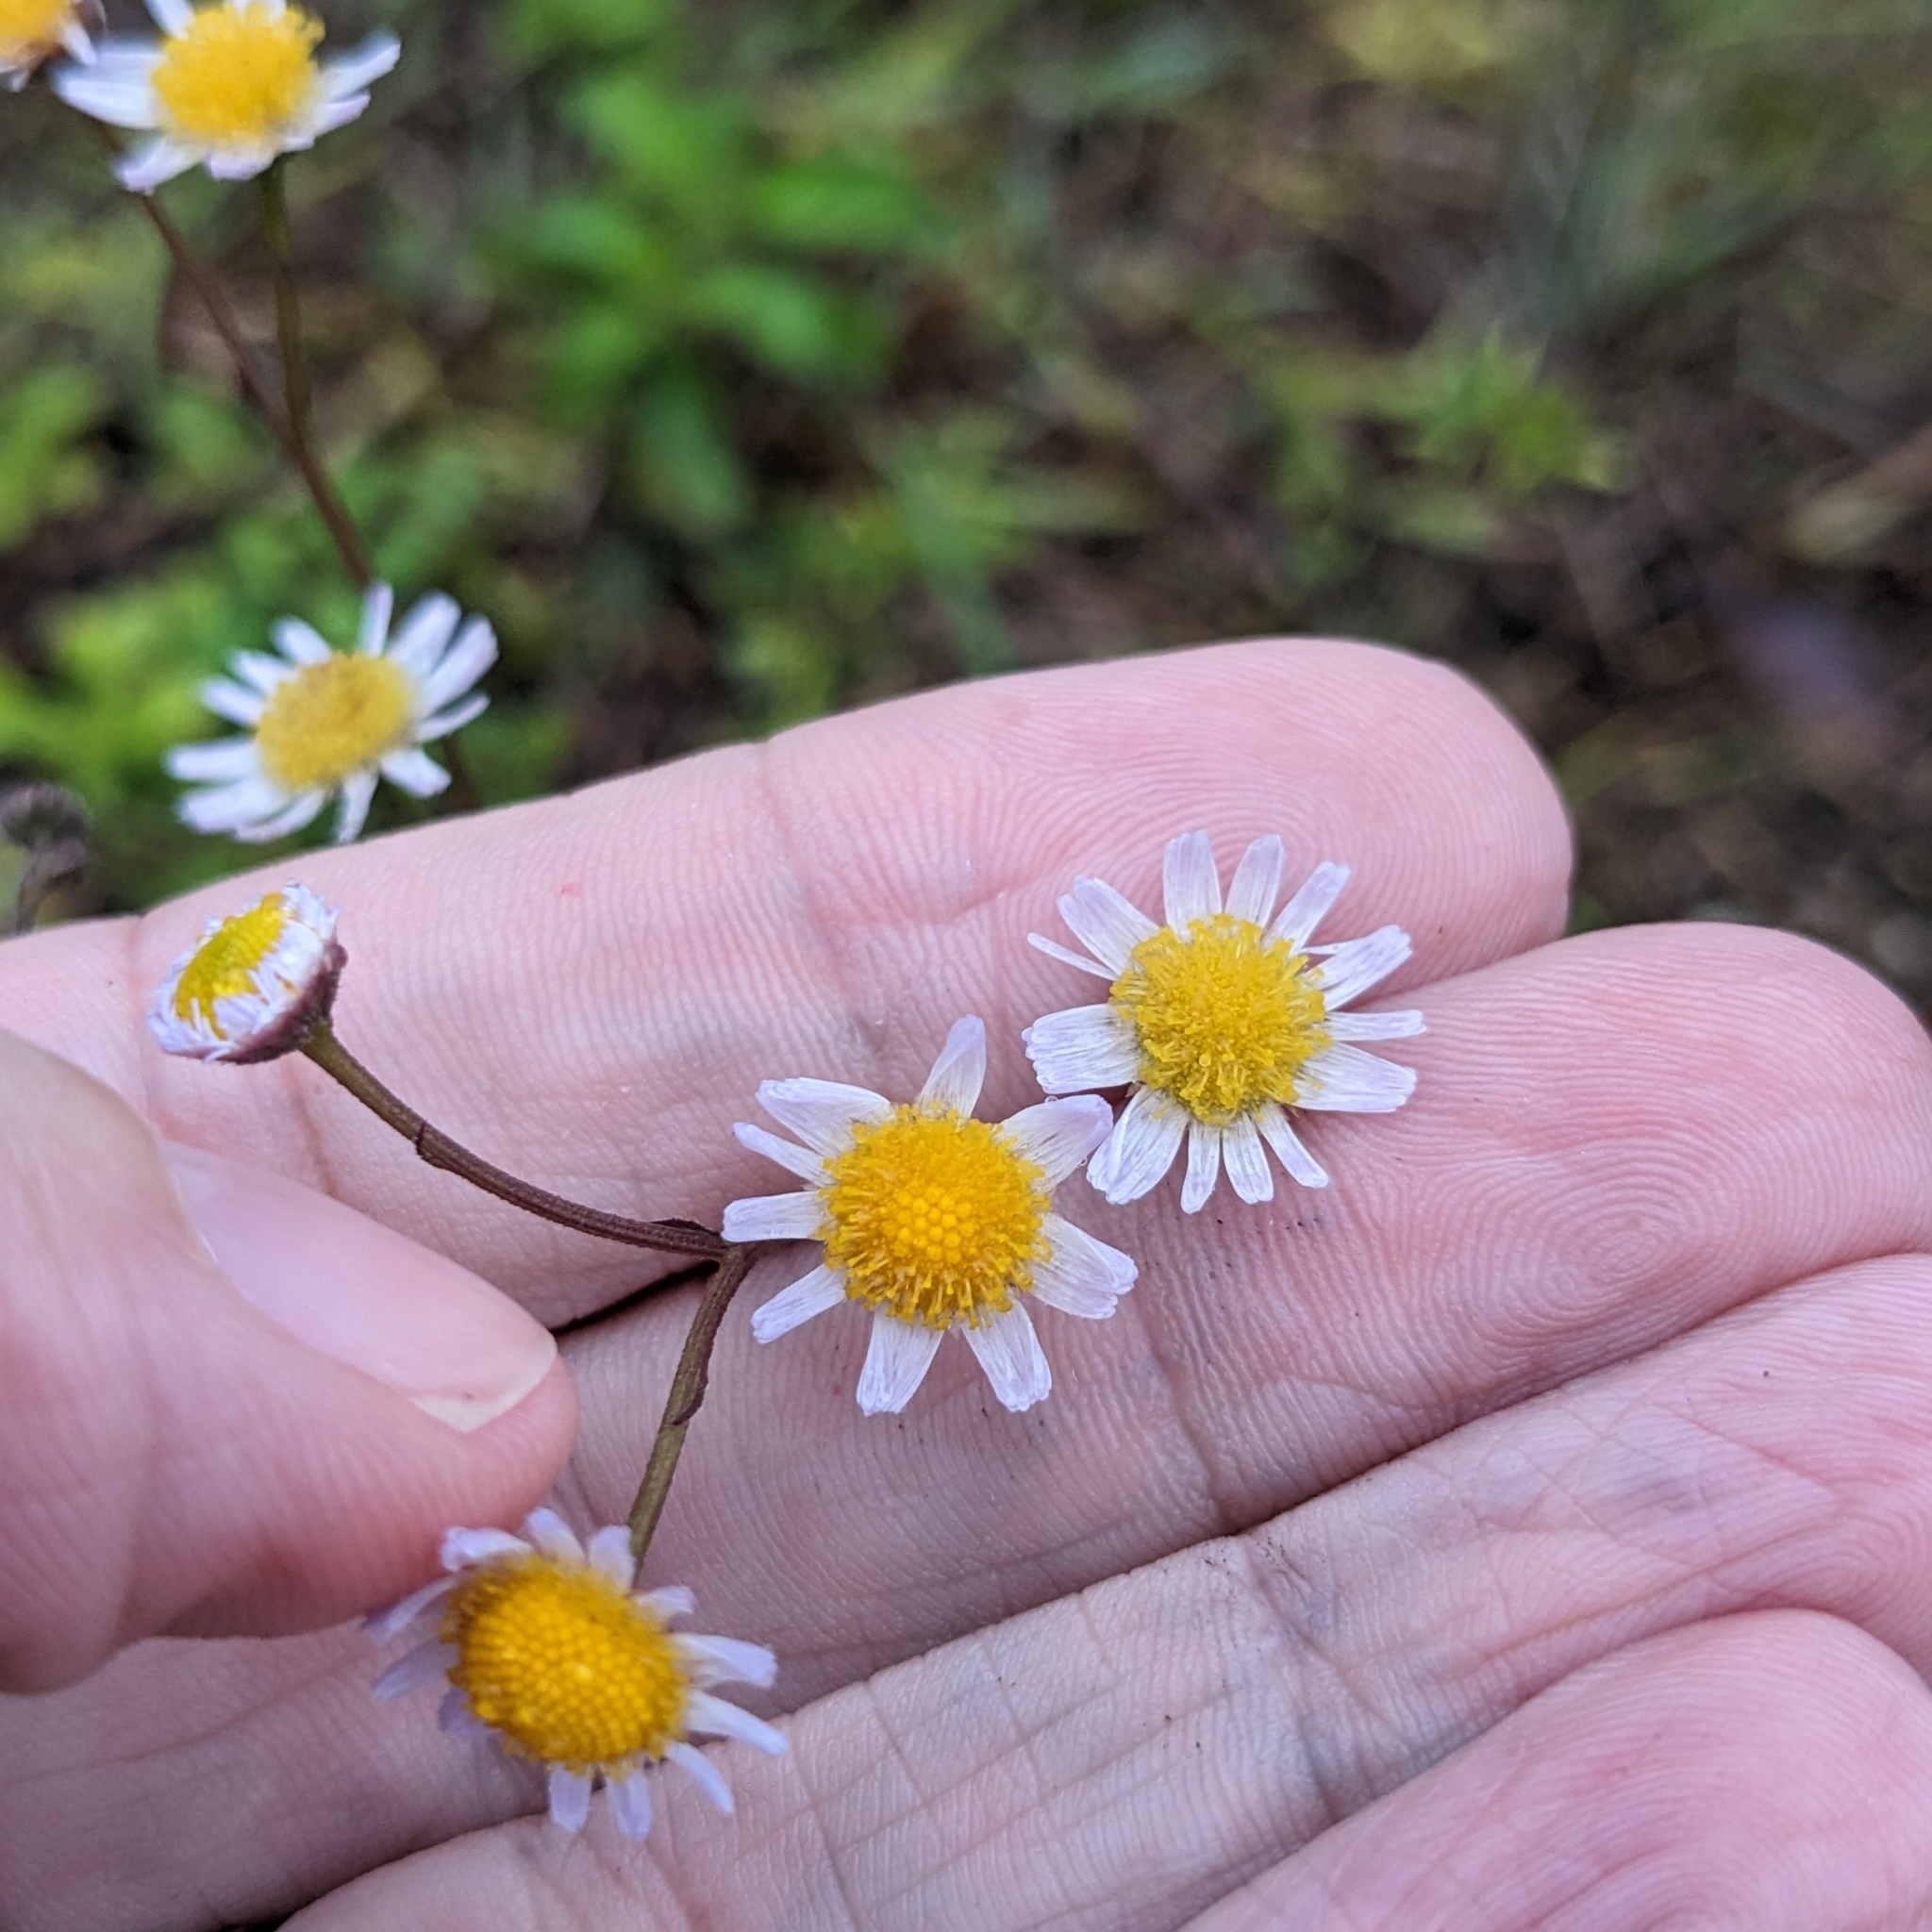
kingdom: Plantae
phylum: Tracheophyta
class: Magnoliopsida
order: Asterales
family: Asteraceae
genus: Erigeron
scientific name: Erigeron quercifolius
